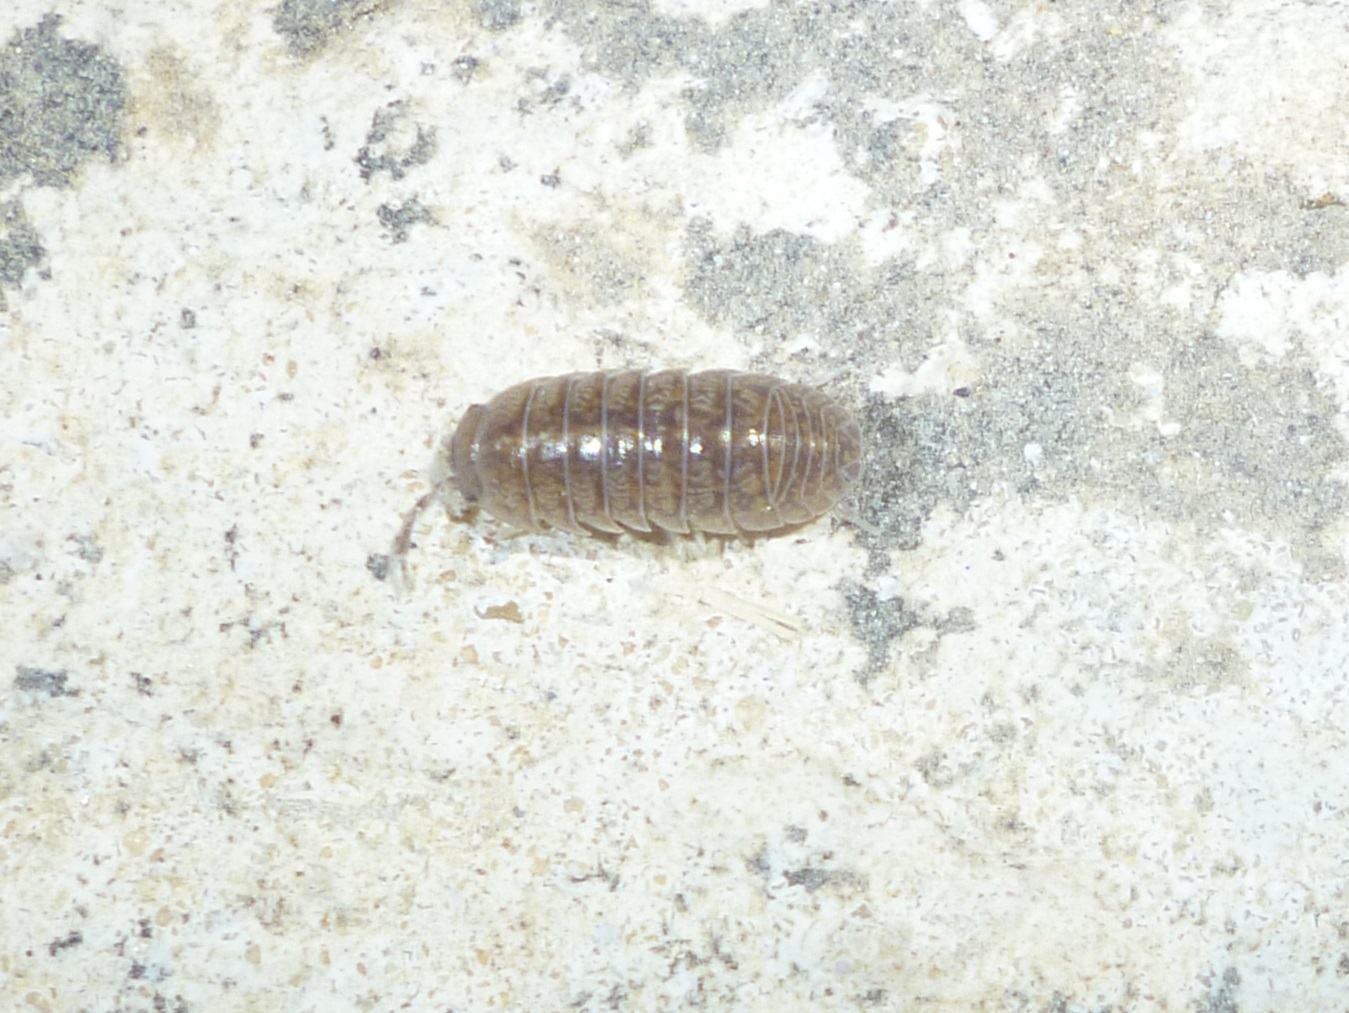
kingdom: Animalia
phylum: Arthropoda
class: Malacostraca
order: Isopoda
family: Armadillidiidae
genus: Armadillidium
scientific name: Armadillidium marmoratum
